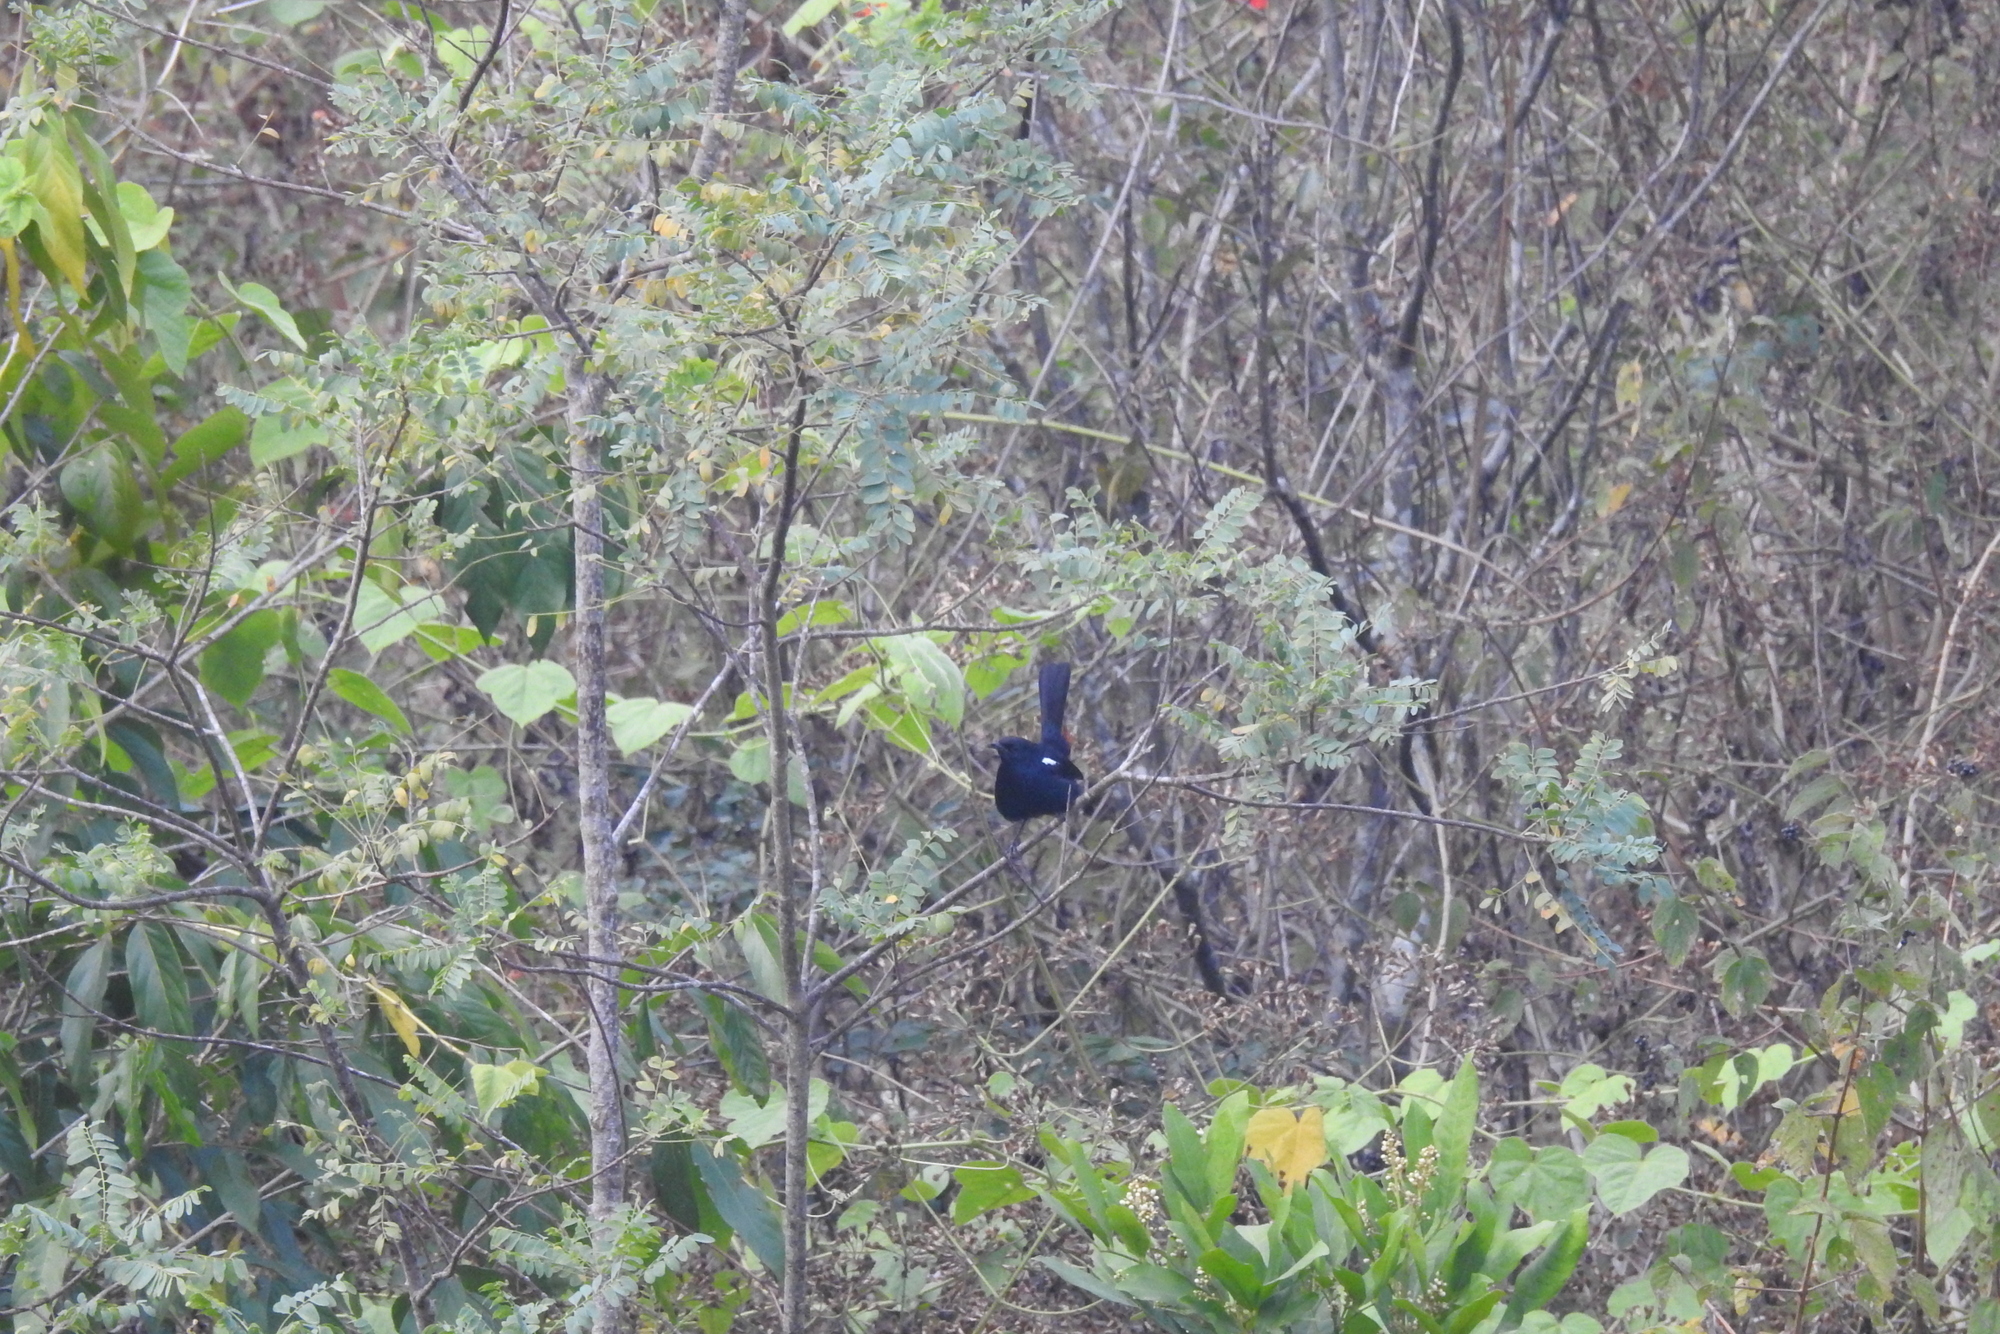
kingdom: Animalia
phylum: Chordata
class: Aves
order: Passeriformes
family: Muscicapidae
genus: Saxicoloides
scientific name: Saxicoloides fulicatus
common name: Indian robin
